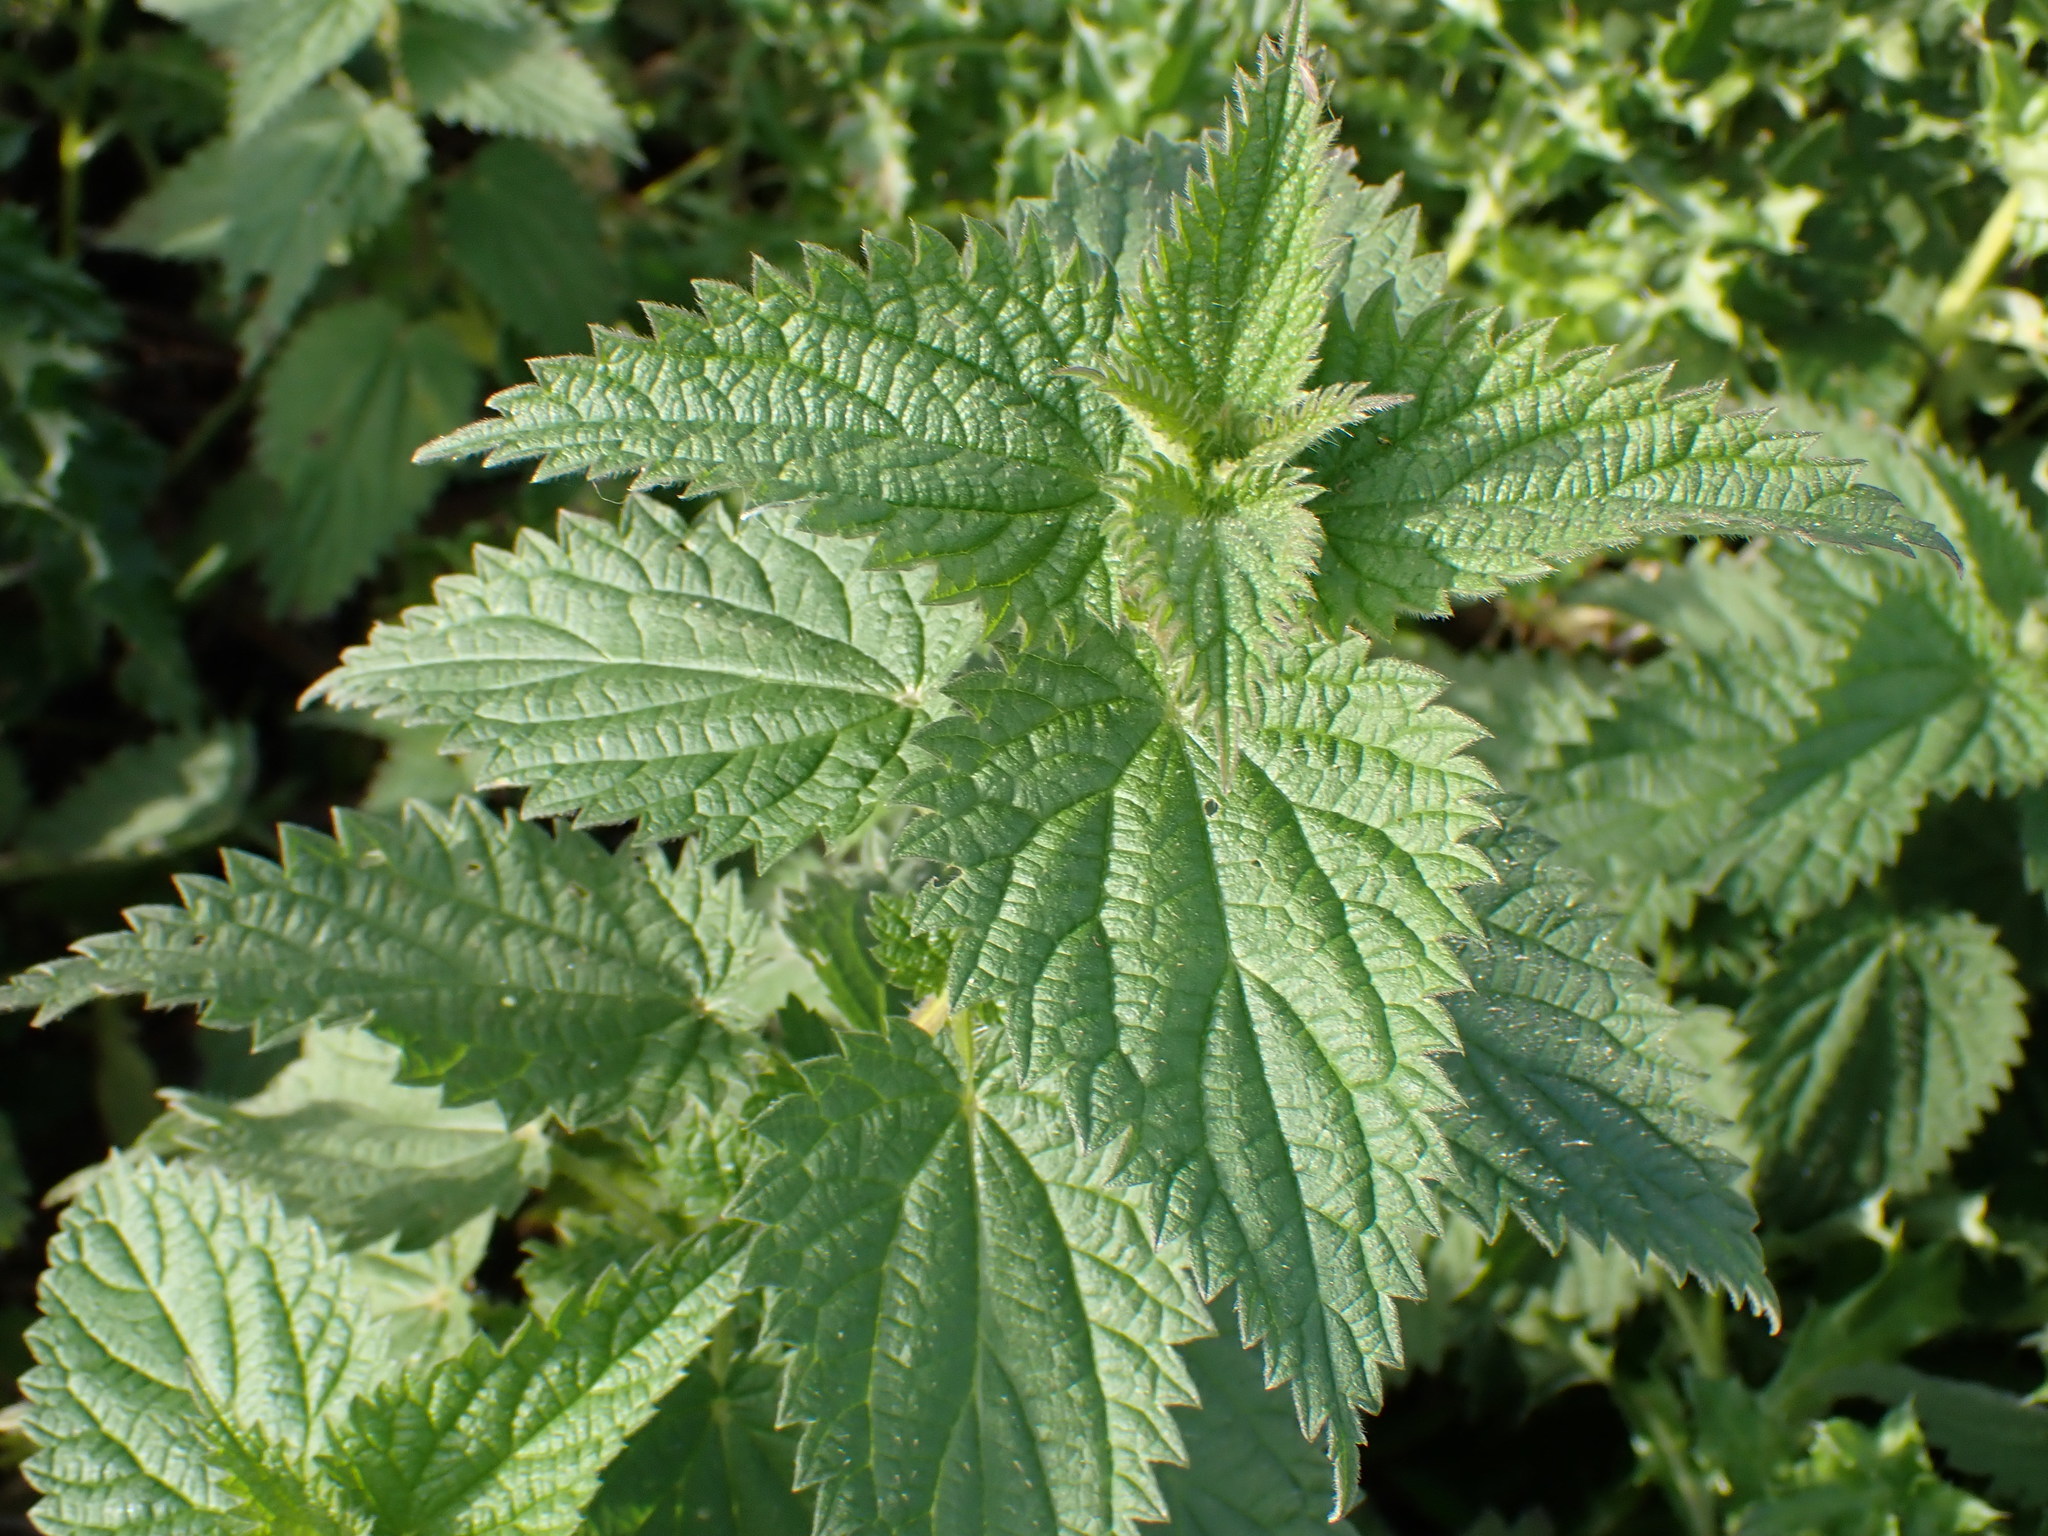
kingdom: Plantae
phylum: Tracheophyta
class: Magnoliopsida
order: Rosales
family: Urticaceae
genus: Urtica
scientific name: Urtica dioica
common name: Common nettle
